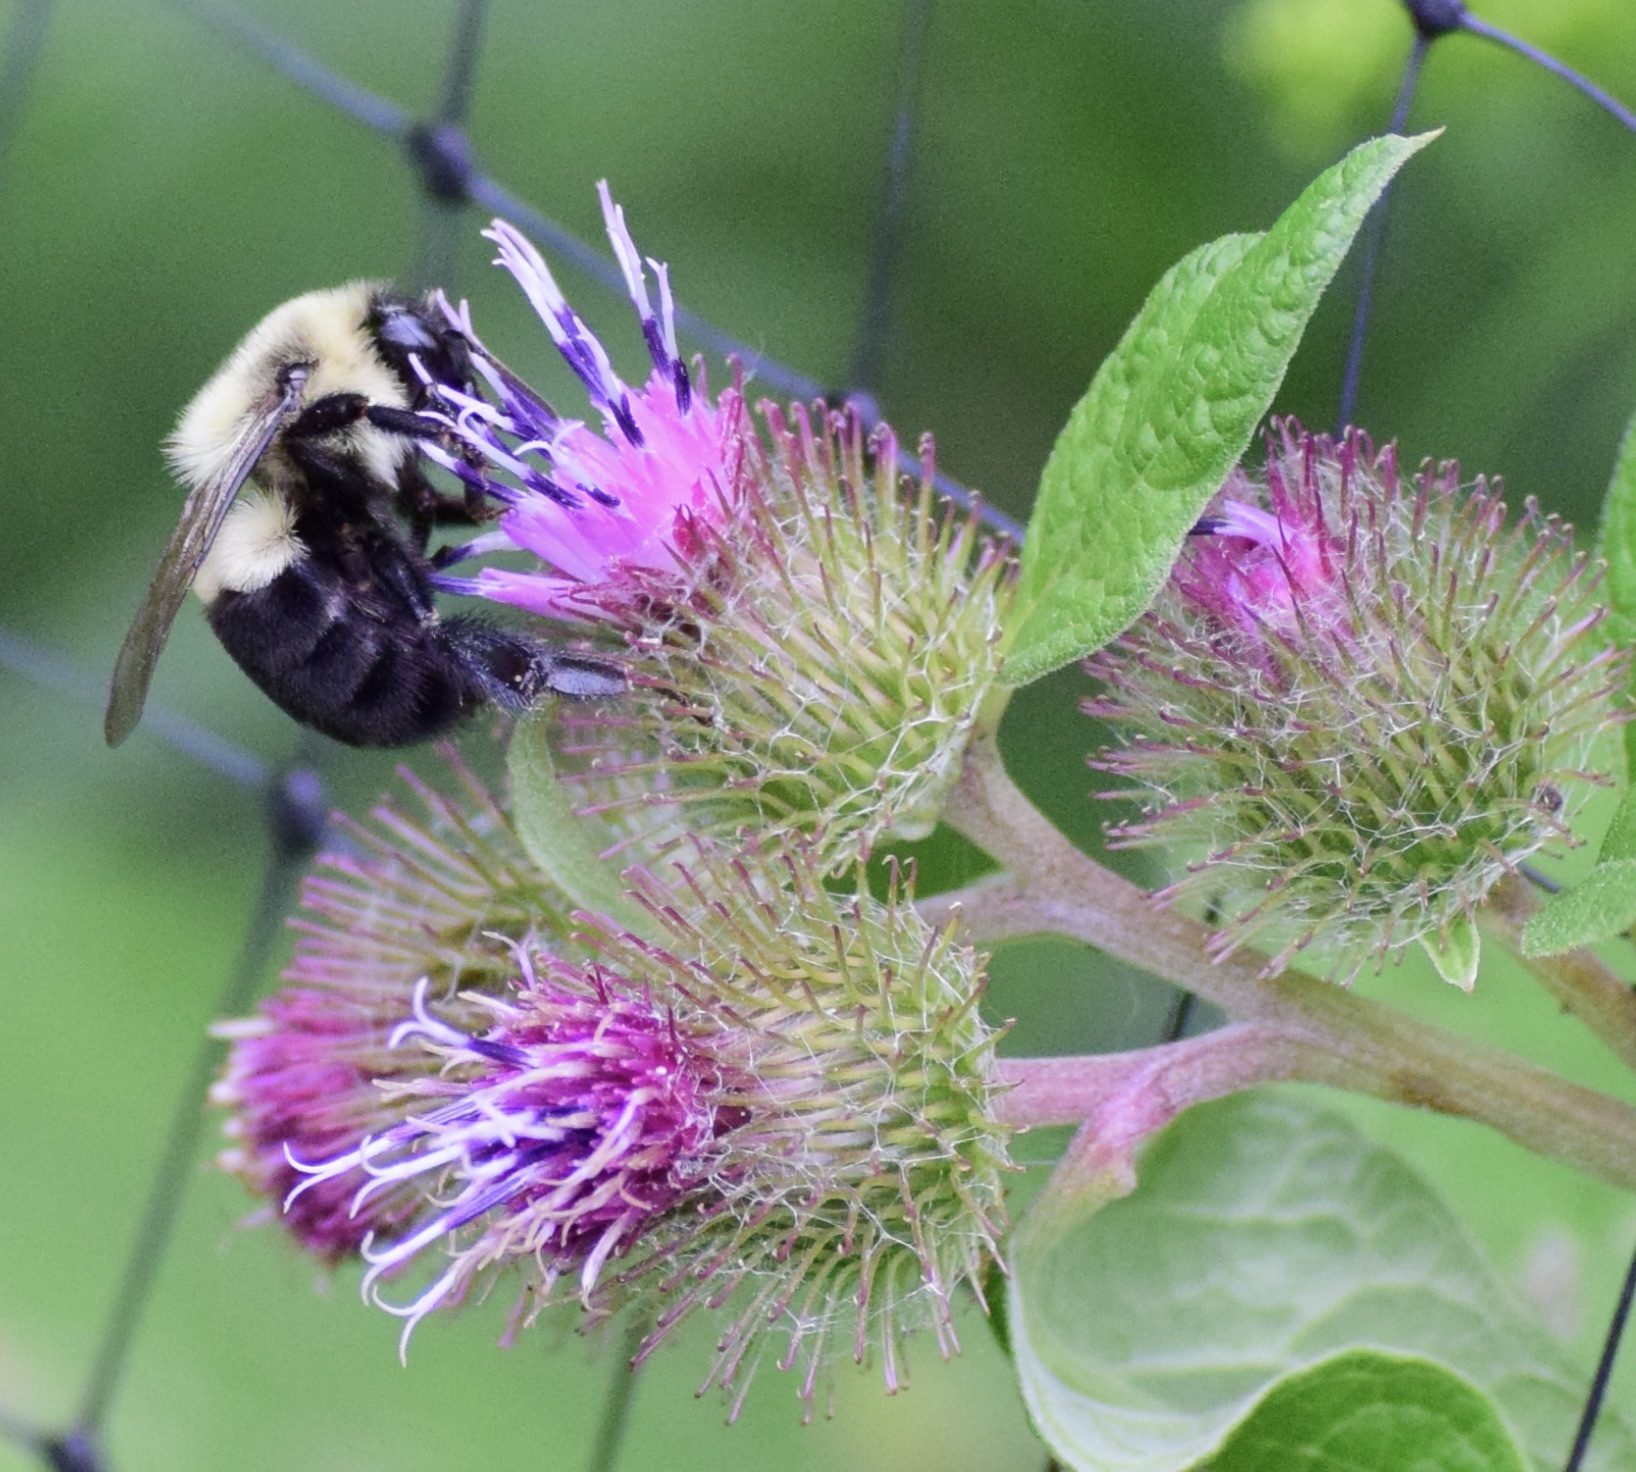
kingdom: Animalia
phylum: Arthropoda
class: Insecta
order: Hymenoptera
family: Apidae
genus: Bombus
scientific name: Bombus impatiens
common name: Common eastern bumble bee
